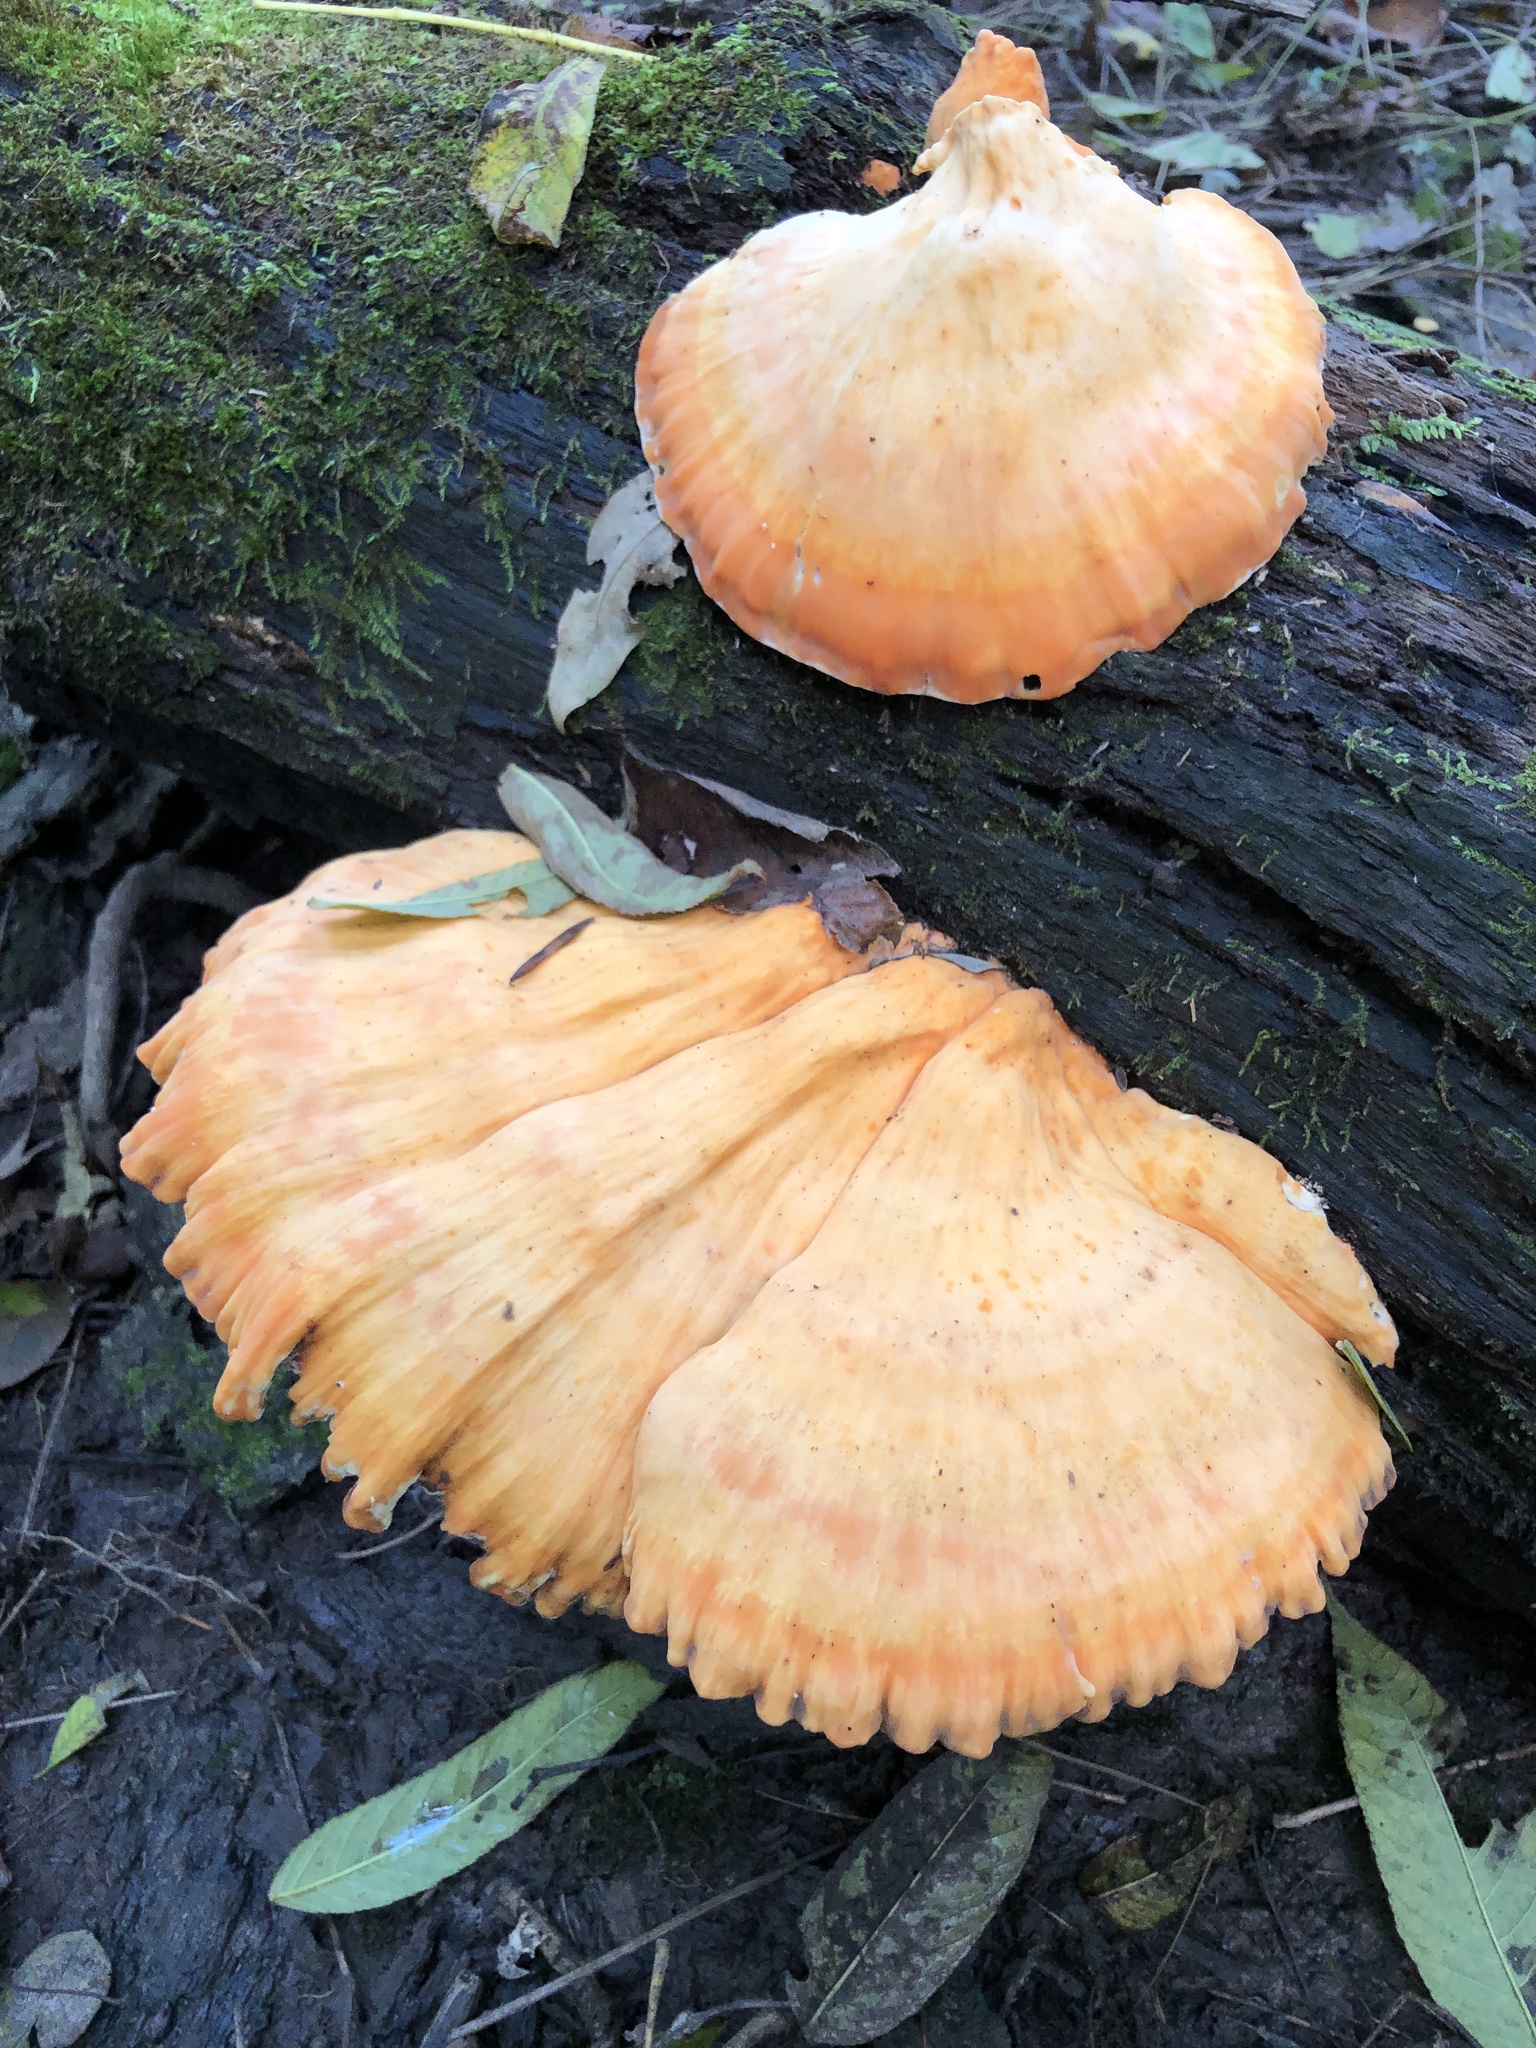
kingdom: Fungi
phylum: Basidiomycota
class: Agaricomycetes
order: Polyporales
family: Laetiporaceae
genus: Laetiporus
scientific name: Laetiporus sulphureus
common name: Chicken of the woods
